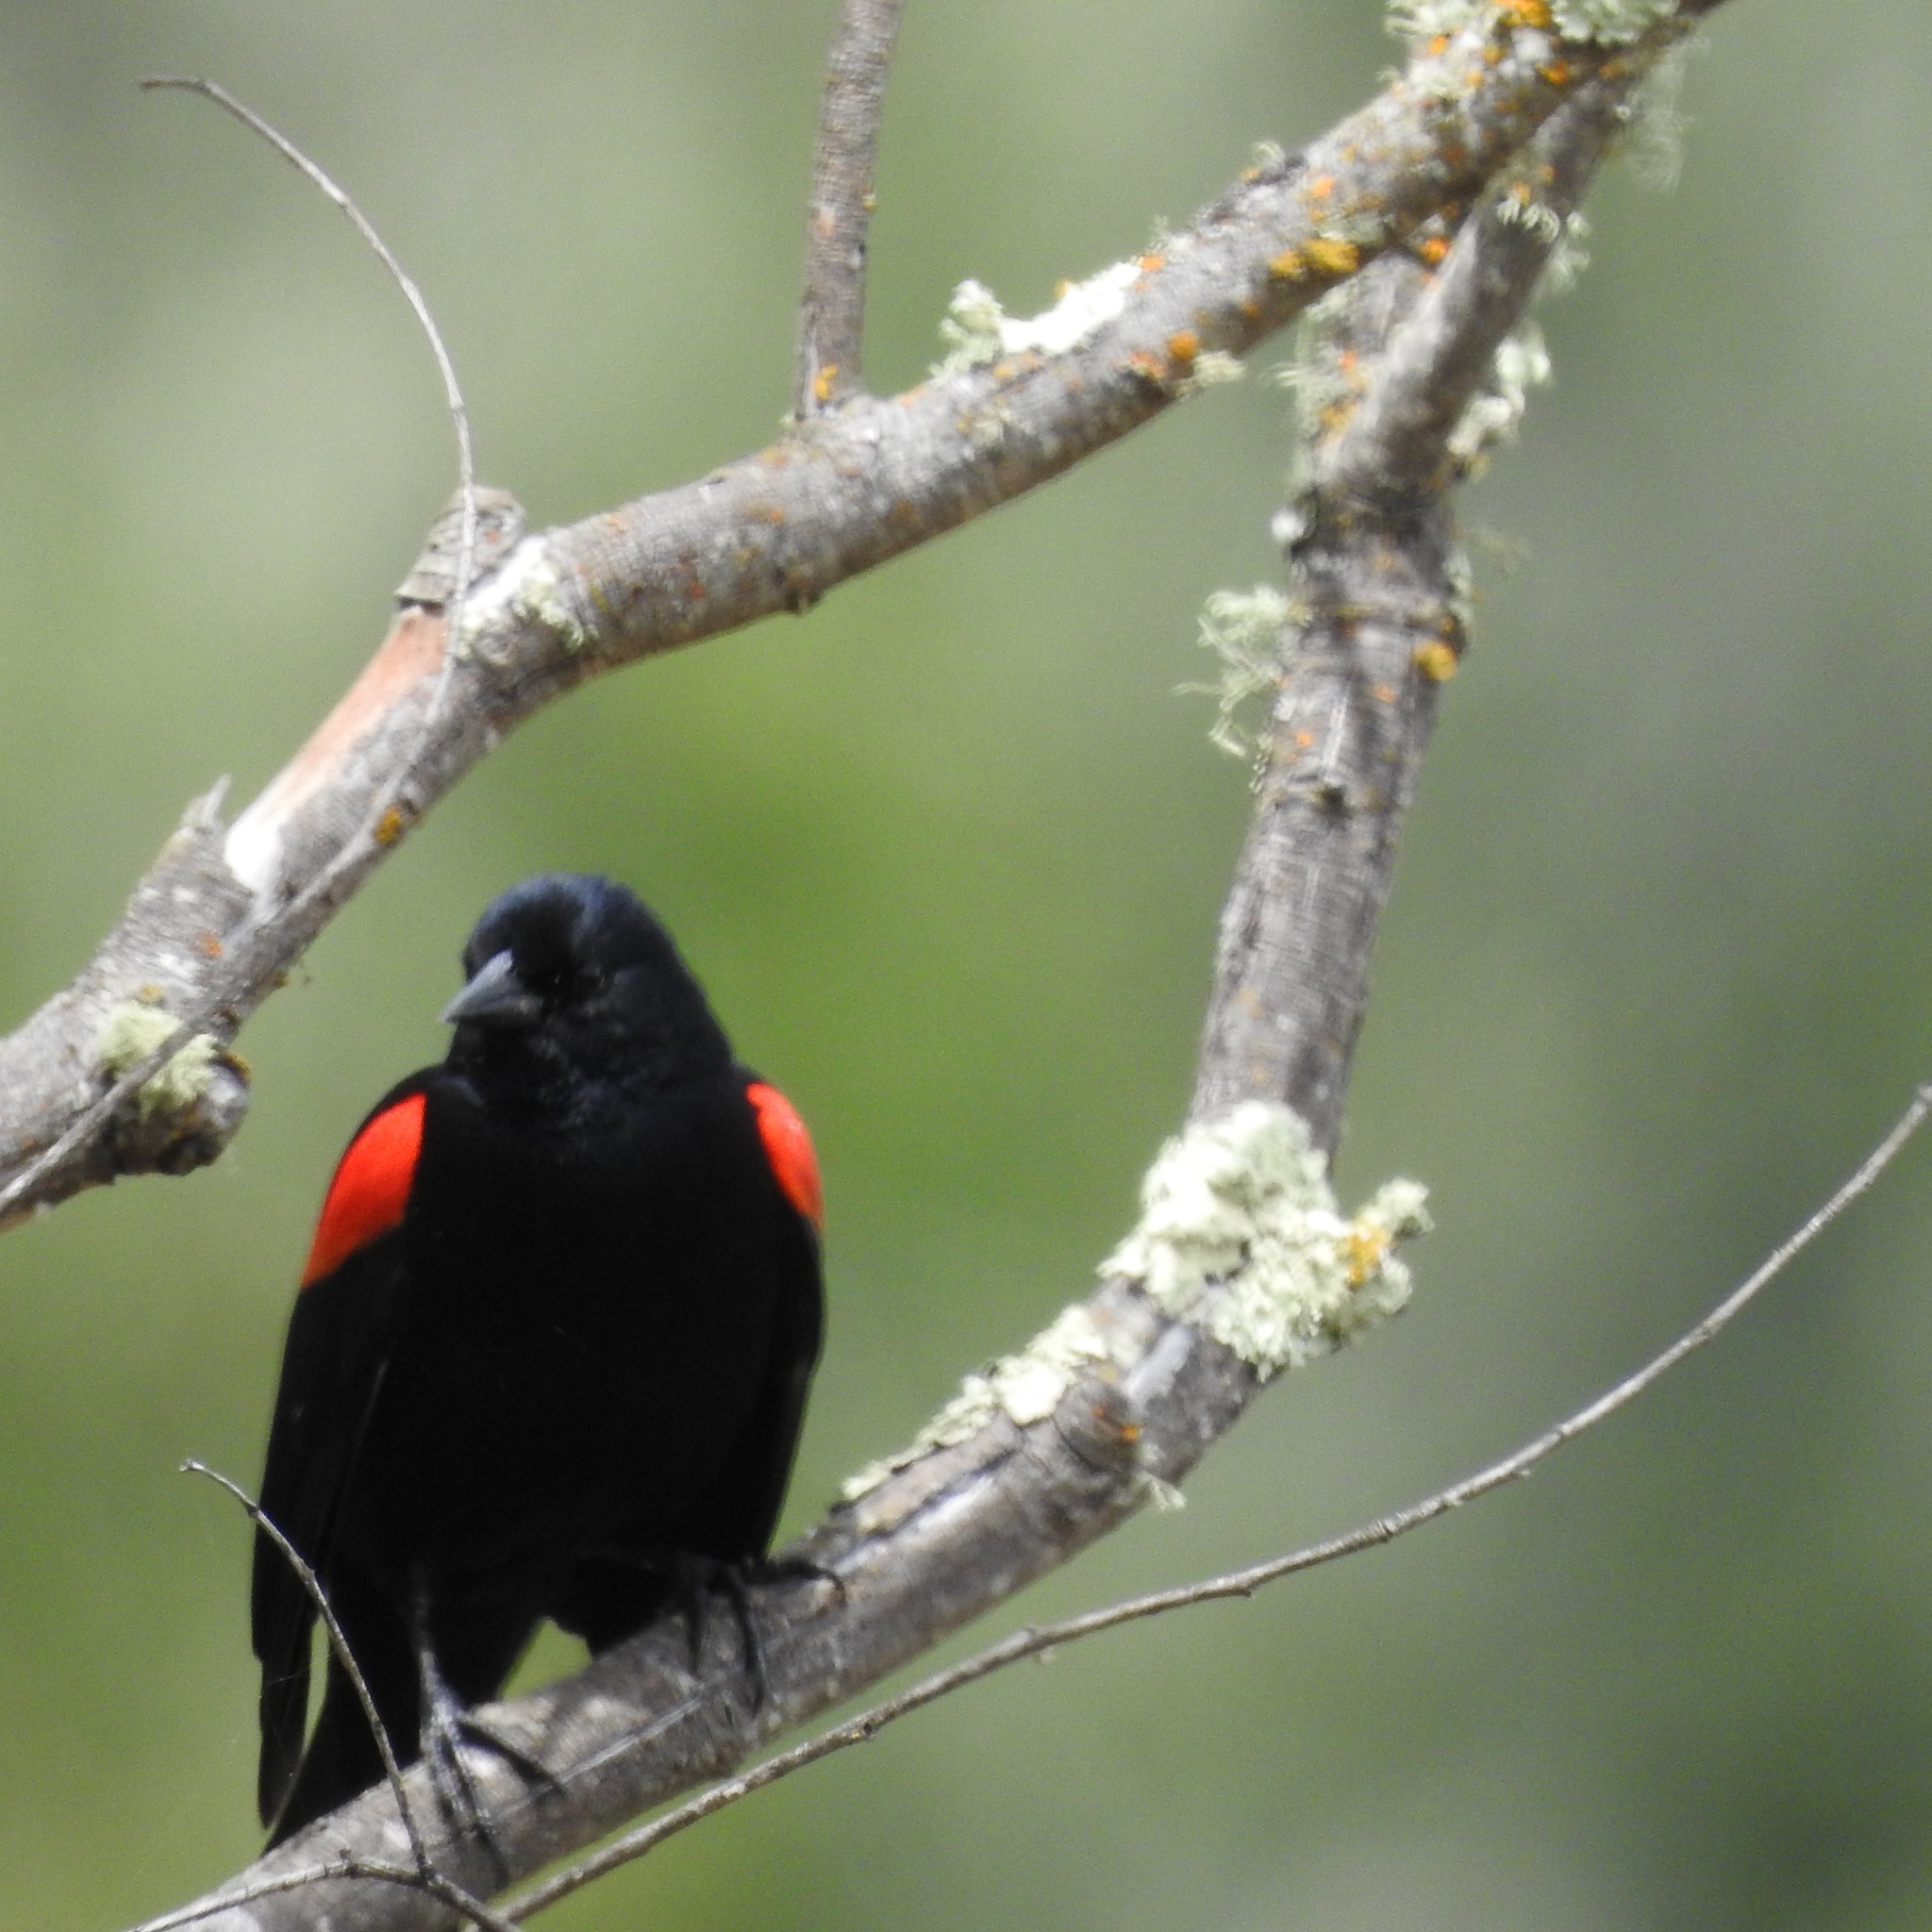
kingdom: Animalia
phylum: Chordata
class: Aves
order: Passeriformes
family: Icteridae
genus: Agelaius
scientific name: Agelaius phoeniceus
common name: Red-winged blackbird
